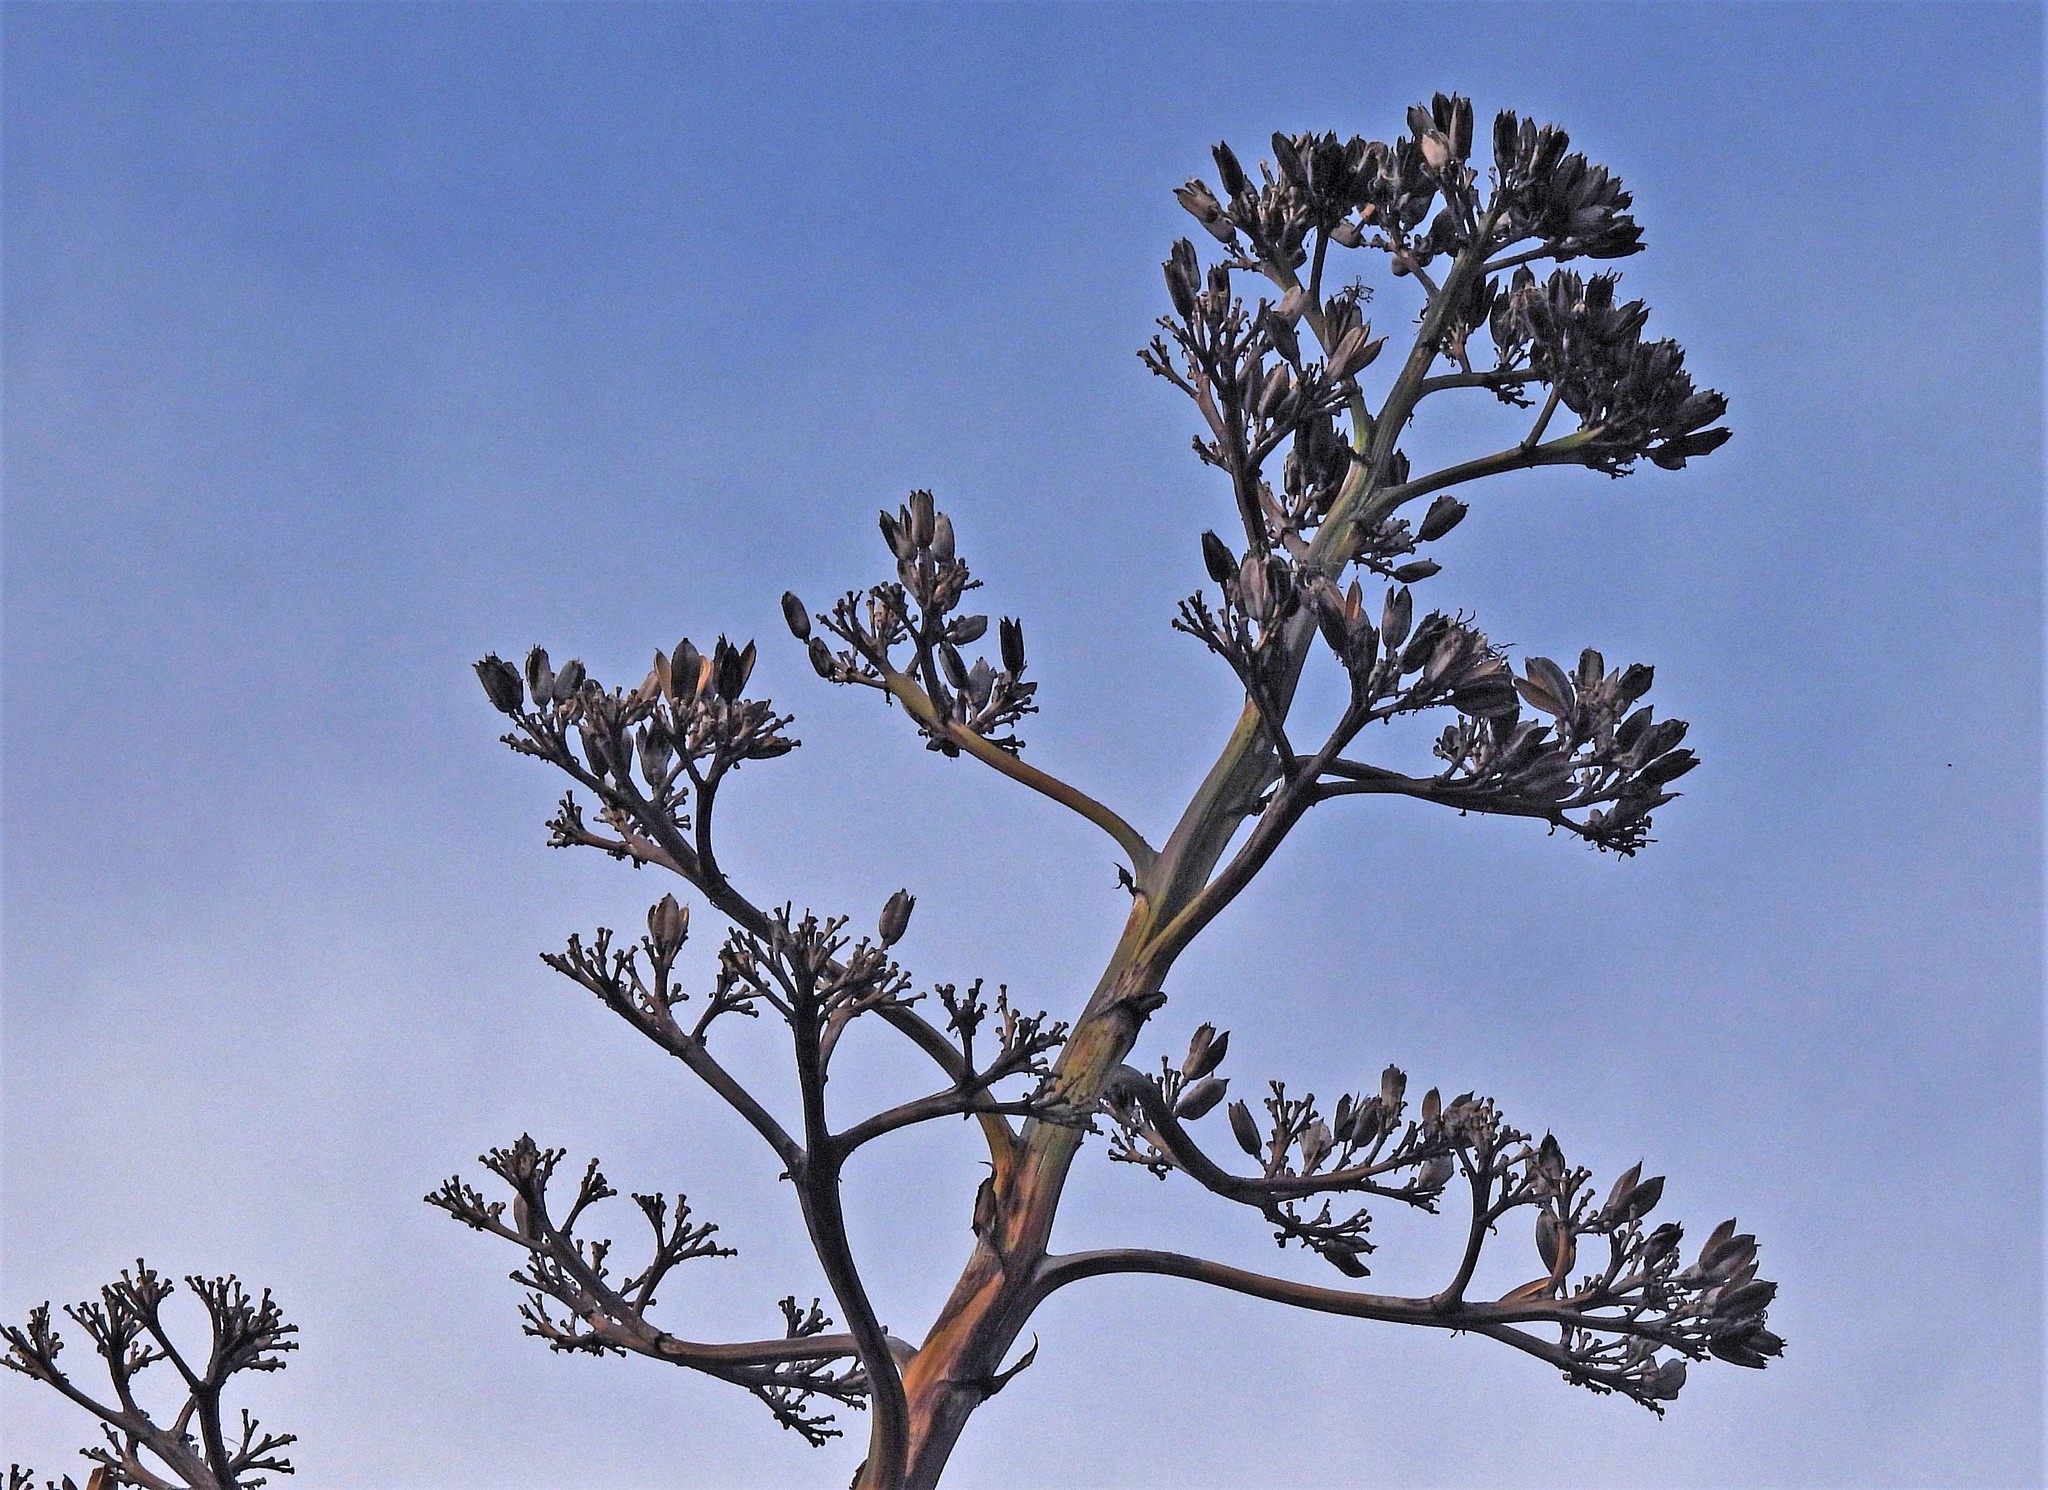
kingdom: Plantae
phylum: Tracheophyta
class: Liliopsida
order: Asparagales
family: Asparagaceae
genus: Agave
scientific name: Agave americana
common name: Centuryplant
